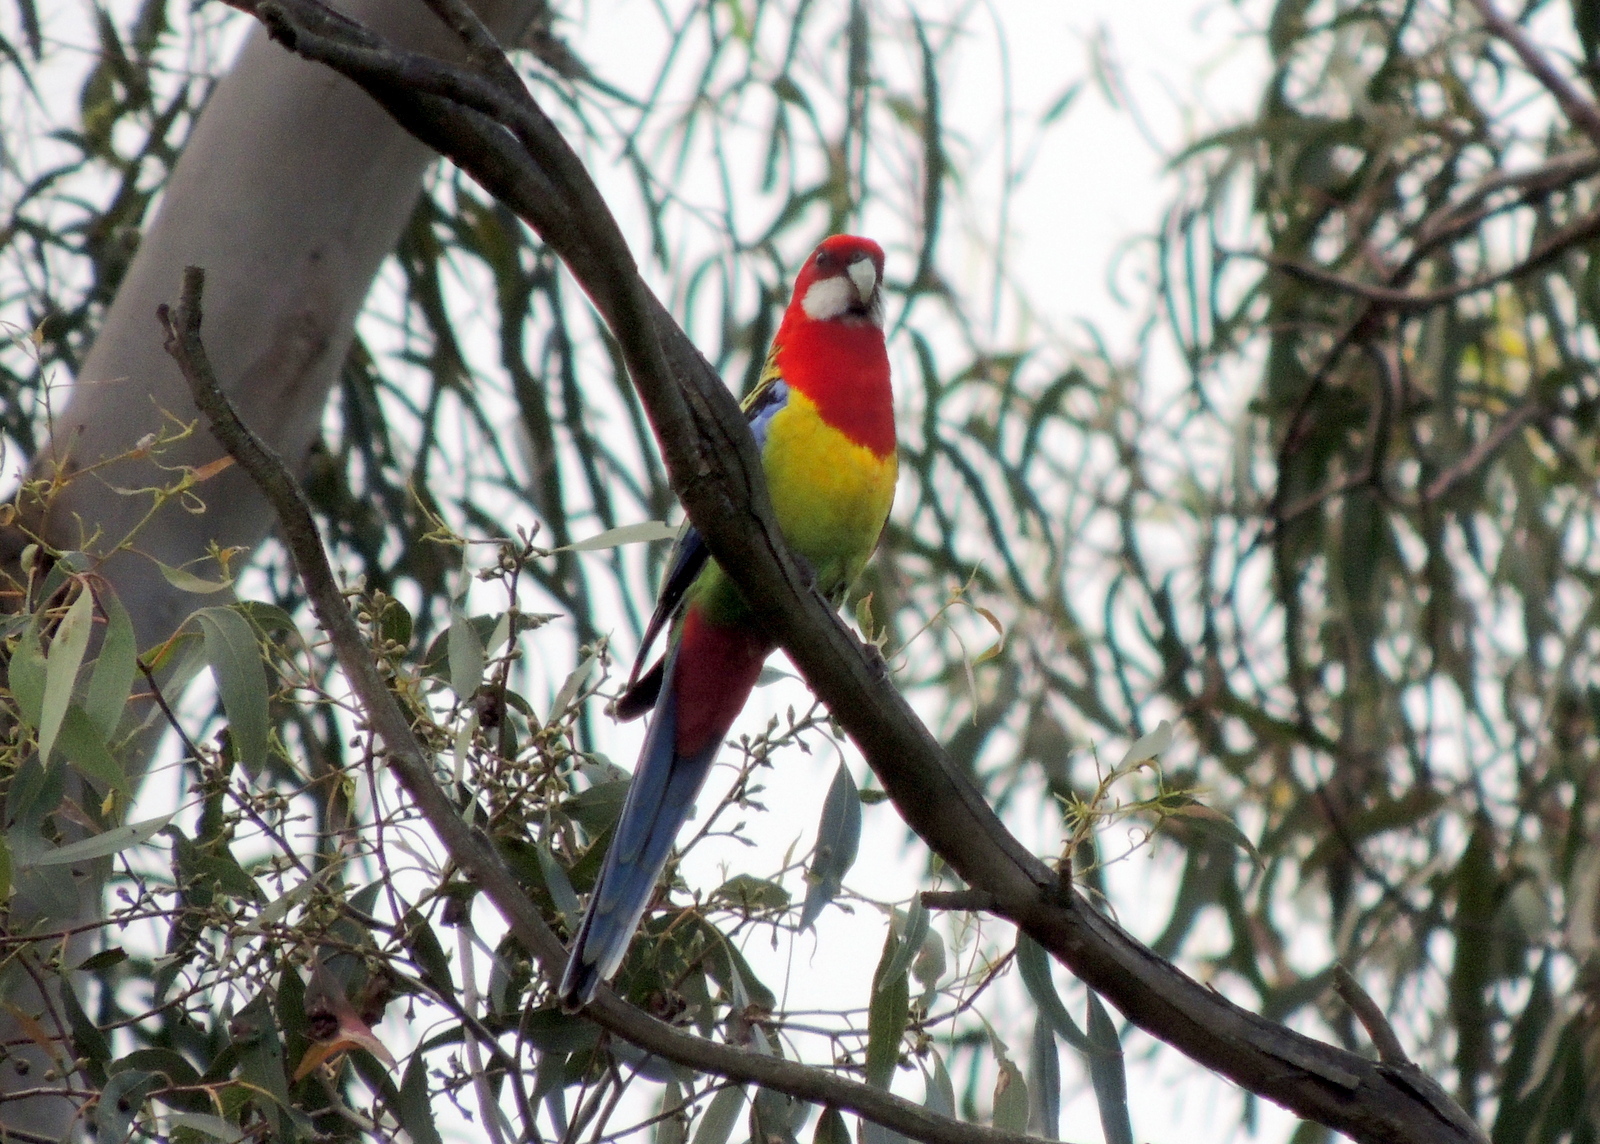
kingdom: Animalia
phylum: Chordata
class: Aves
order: Psittaciformes
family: Psittacidae
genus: Platycercus
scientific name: Platycercus eximius
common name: Eastern rosella
